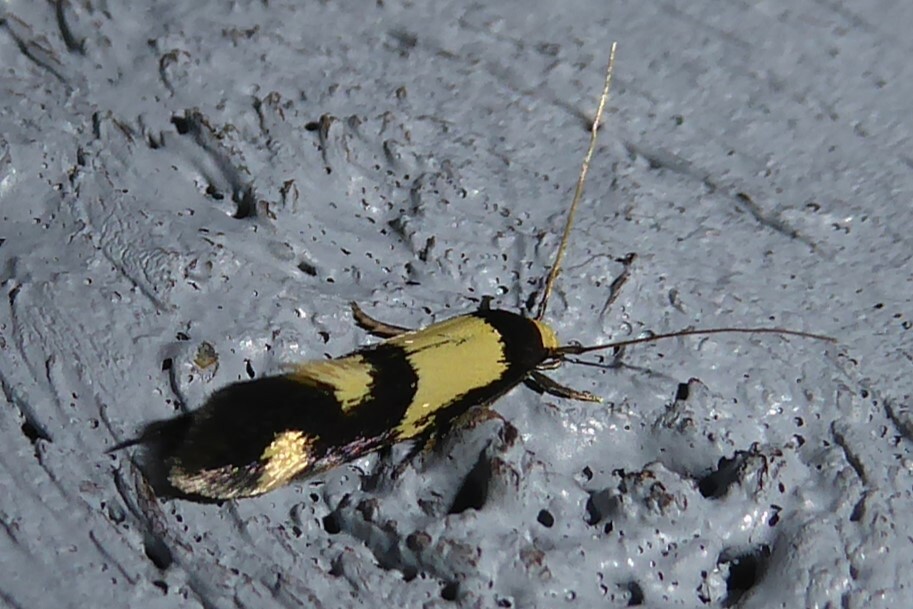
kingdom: Animalia
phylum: Arthropoda
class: Insecta
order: Lepidoptera
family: Tineidae
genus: Opogona
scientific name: Opogona comptella
